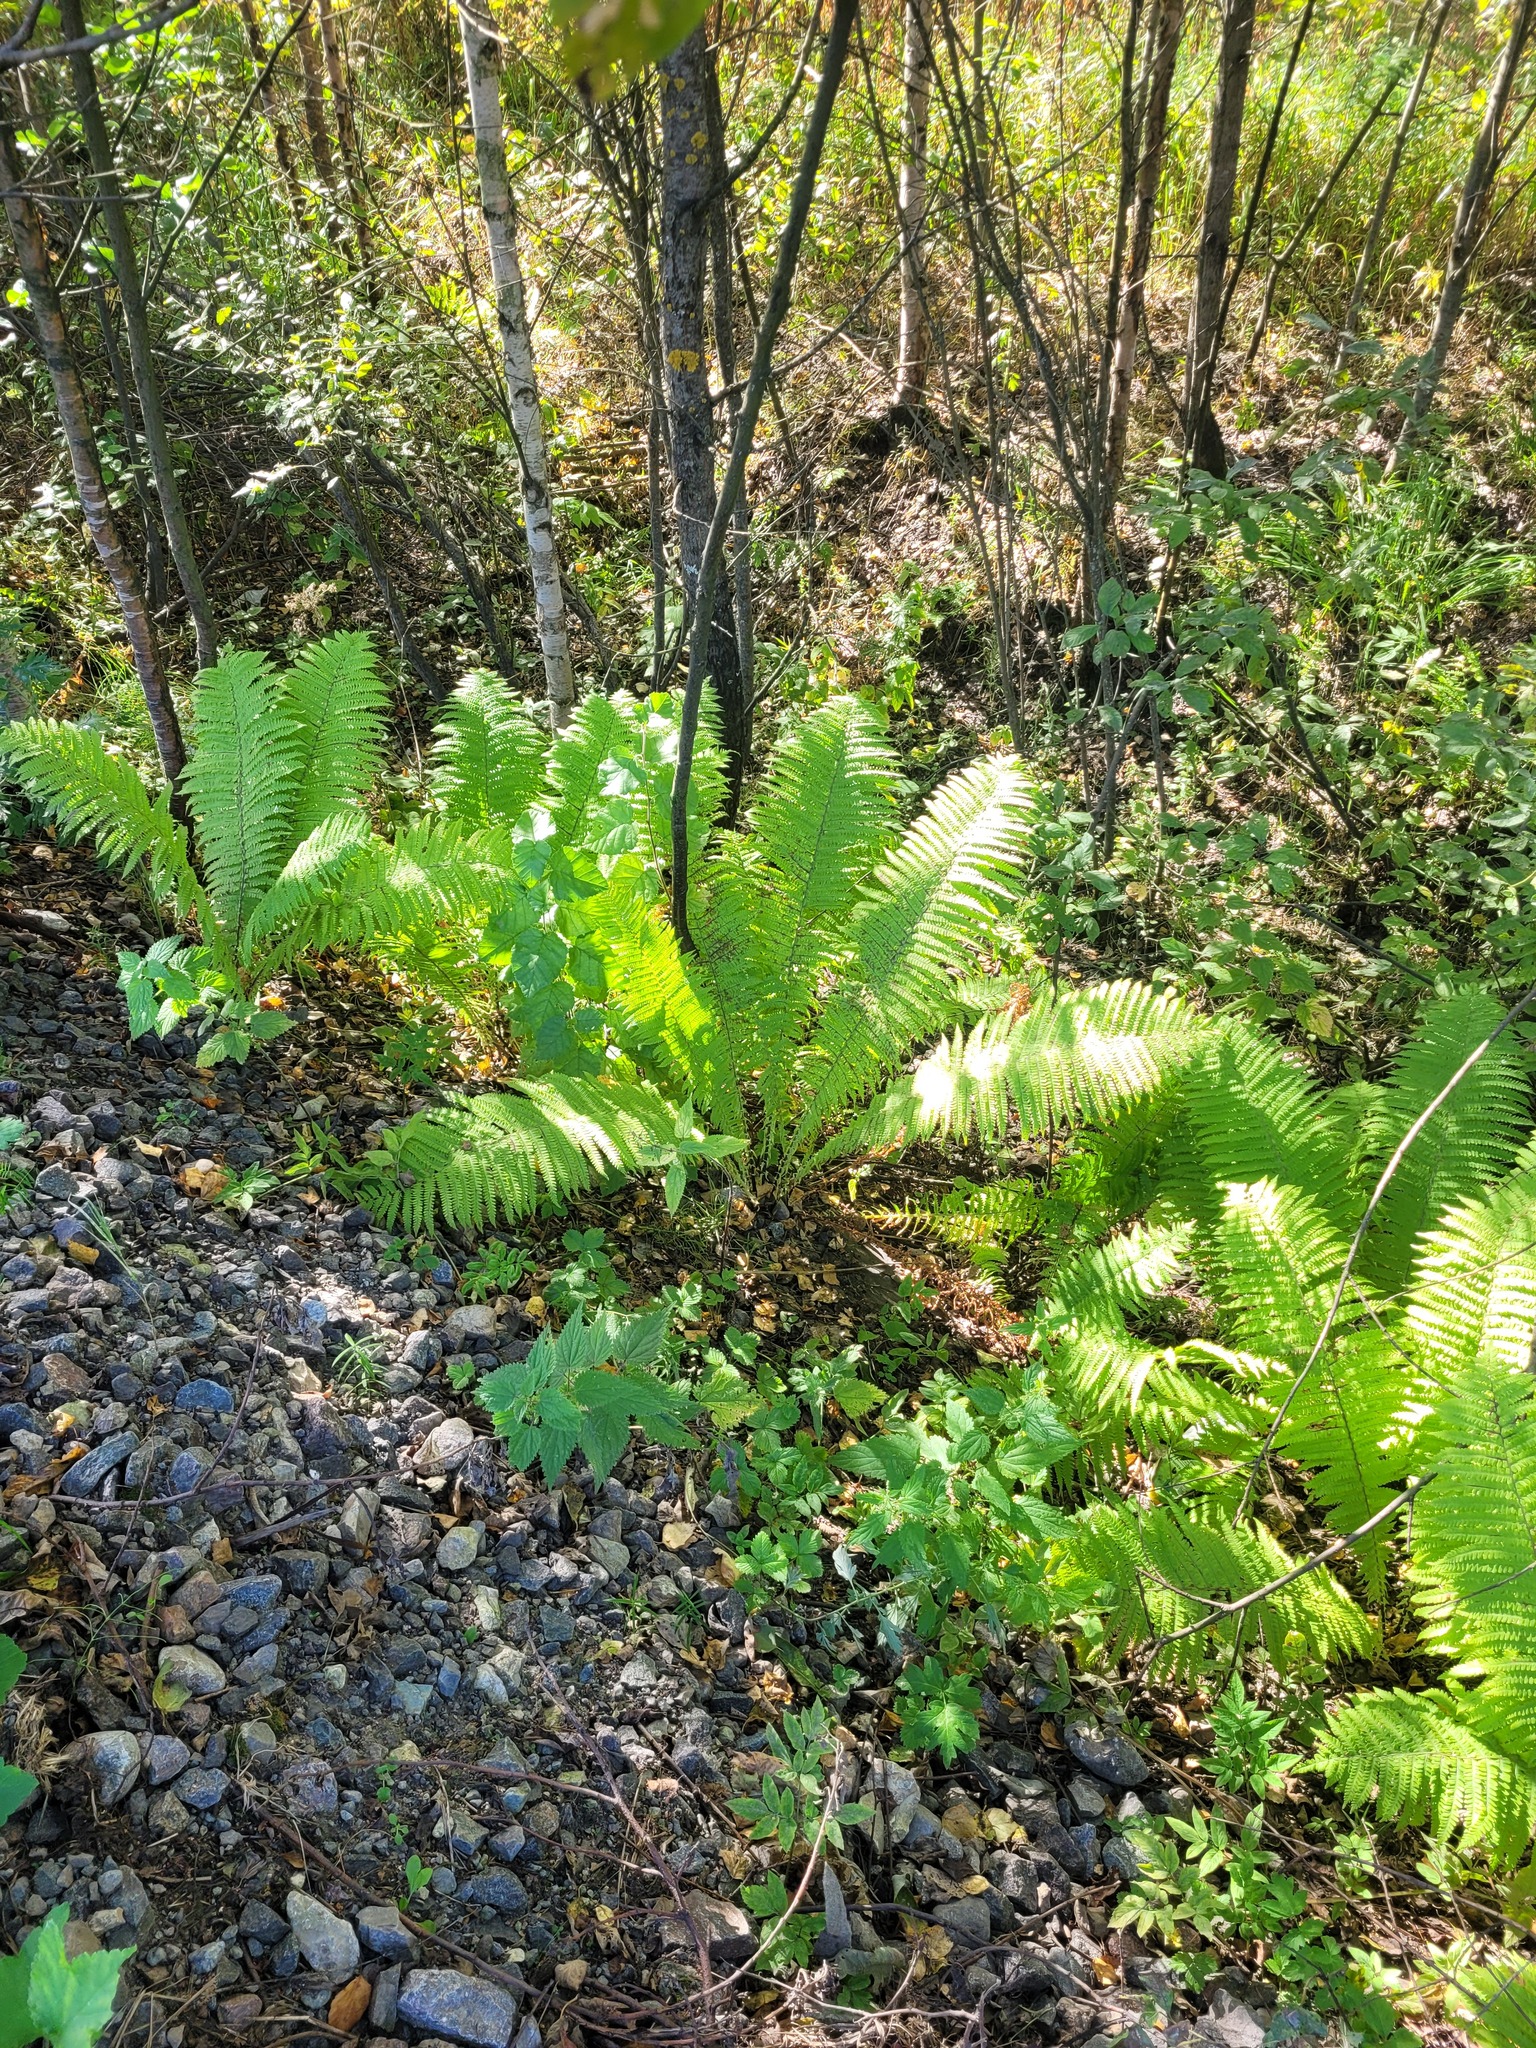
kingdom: Plantae
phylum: Tracheophyta
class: Polypodiopsida
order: Polypodiales
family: Onocleaceae
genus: Matteuccia
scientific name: Matteuccia struthiopteris
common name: Ostrich fern
